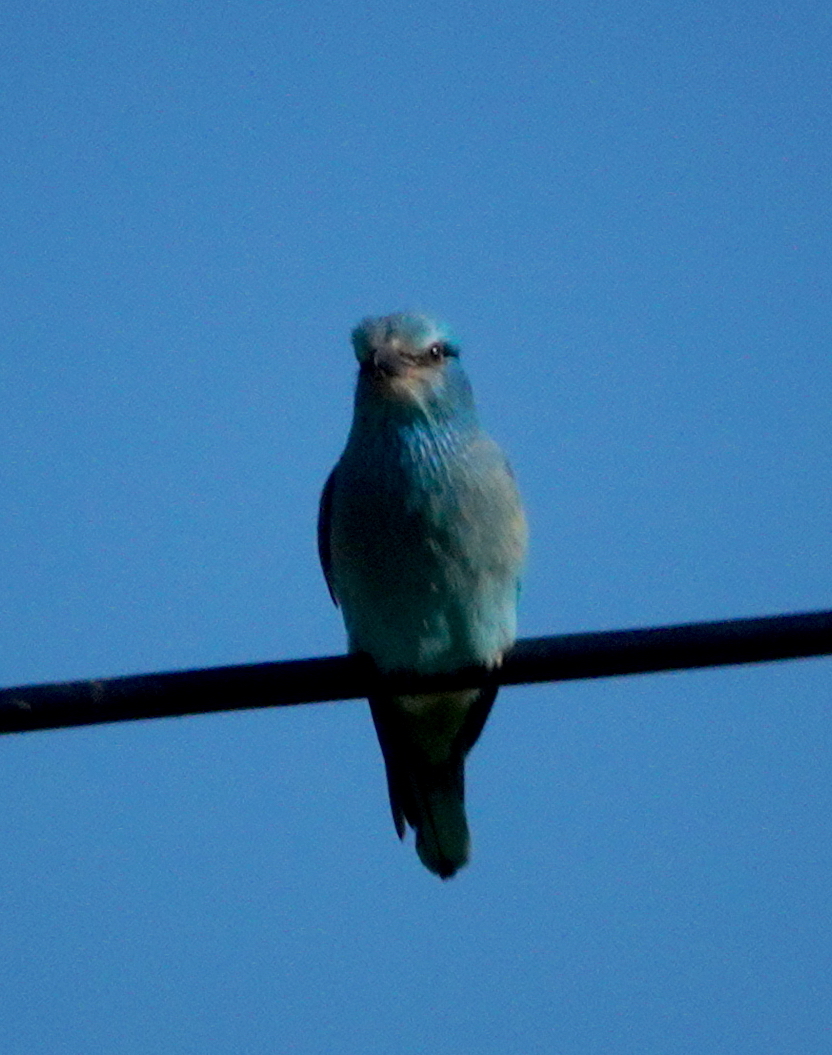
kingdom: Animalia
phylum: Chordata
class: Aves
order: Coraciiformes
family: Coraciidae
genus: Coracias
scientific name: Coracias garrulus
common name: European roller
